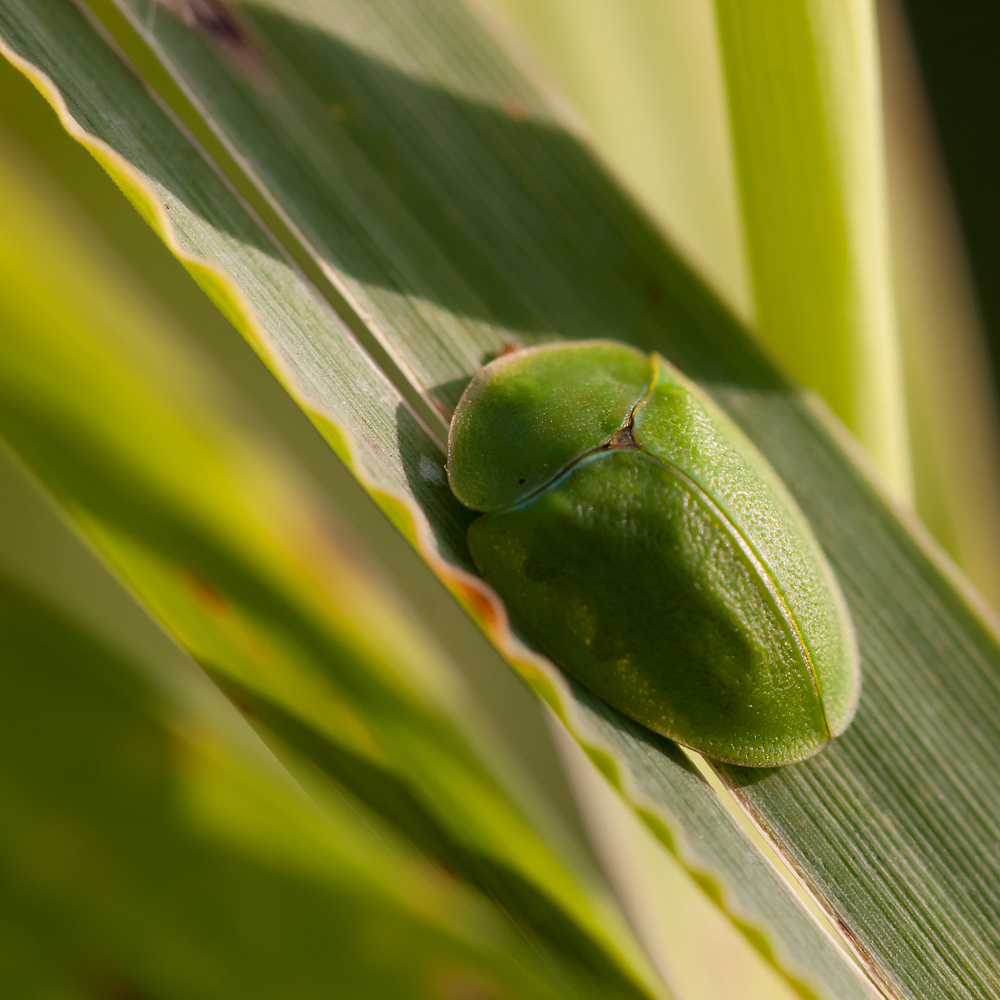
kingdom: Animalia
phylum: Arthropoda
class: Insecta
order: Coleoptera
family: Chrysomelidae
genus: Cassida
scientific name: Cassida viridis
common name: Green tortoise beetle
